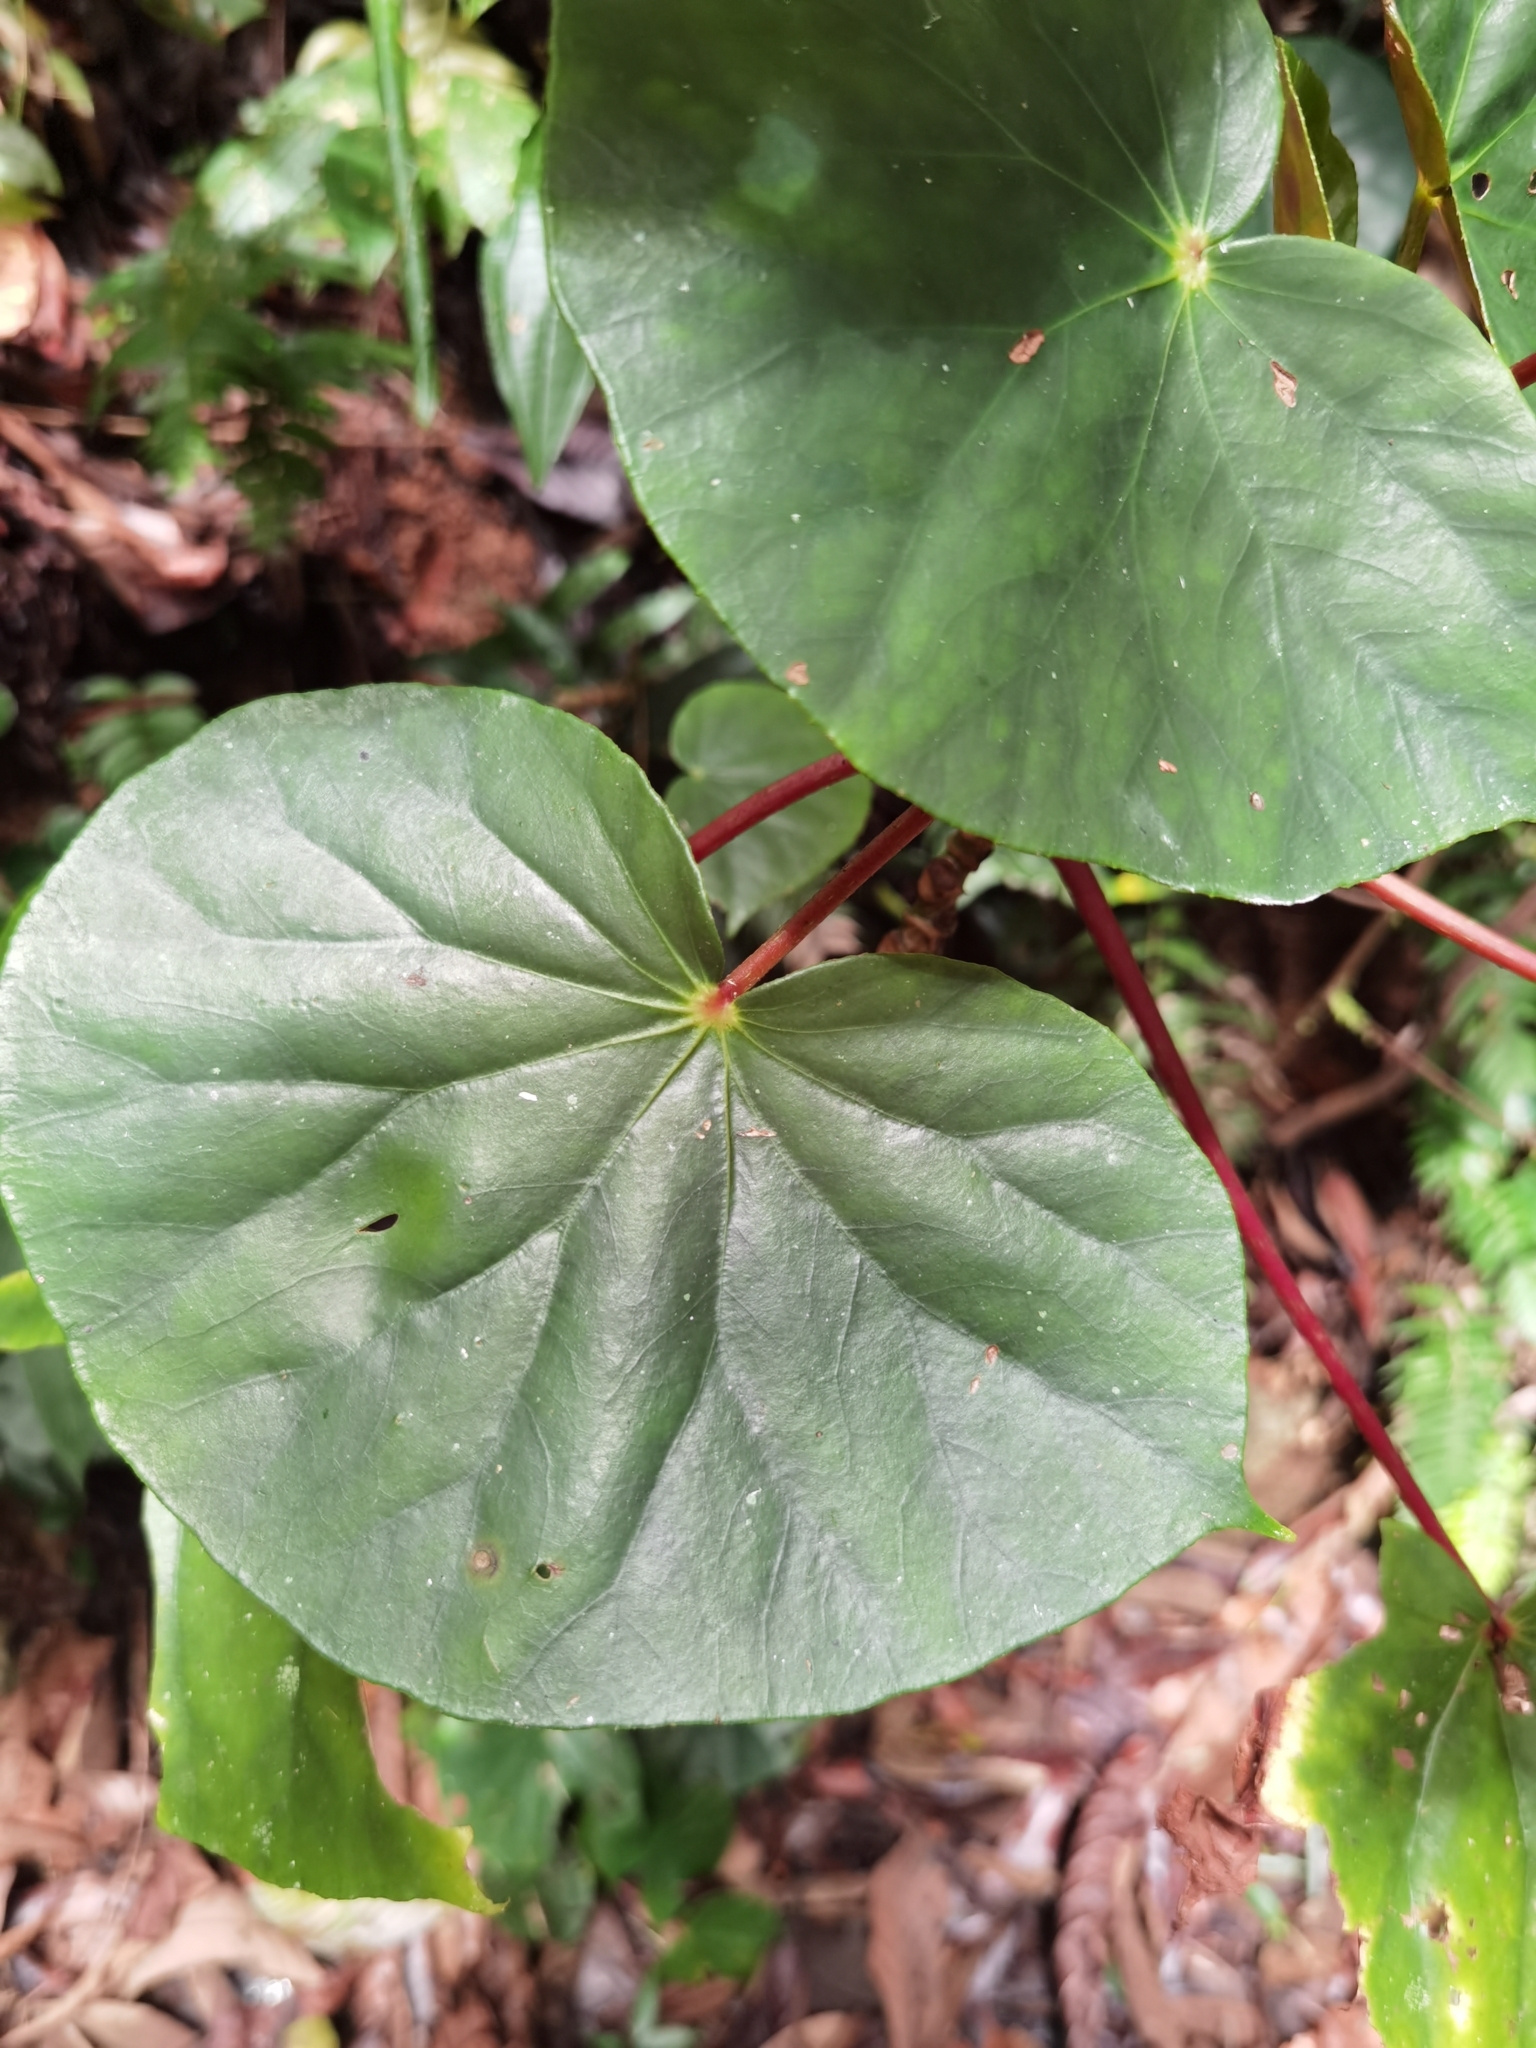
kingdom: Plantae
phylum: Tracheophyta
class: Magnoliopsida
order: Cucurbitales
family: Begoniaceae
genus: Begonia
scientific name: Begonia multinervia
